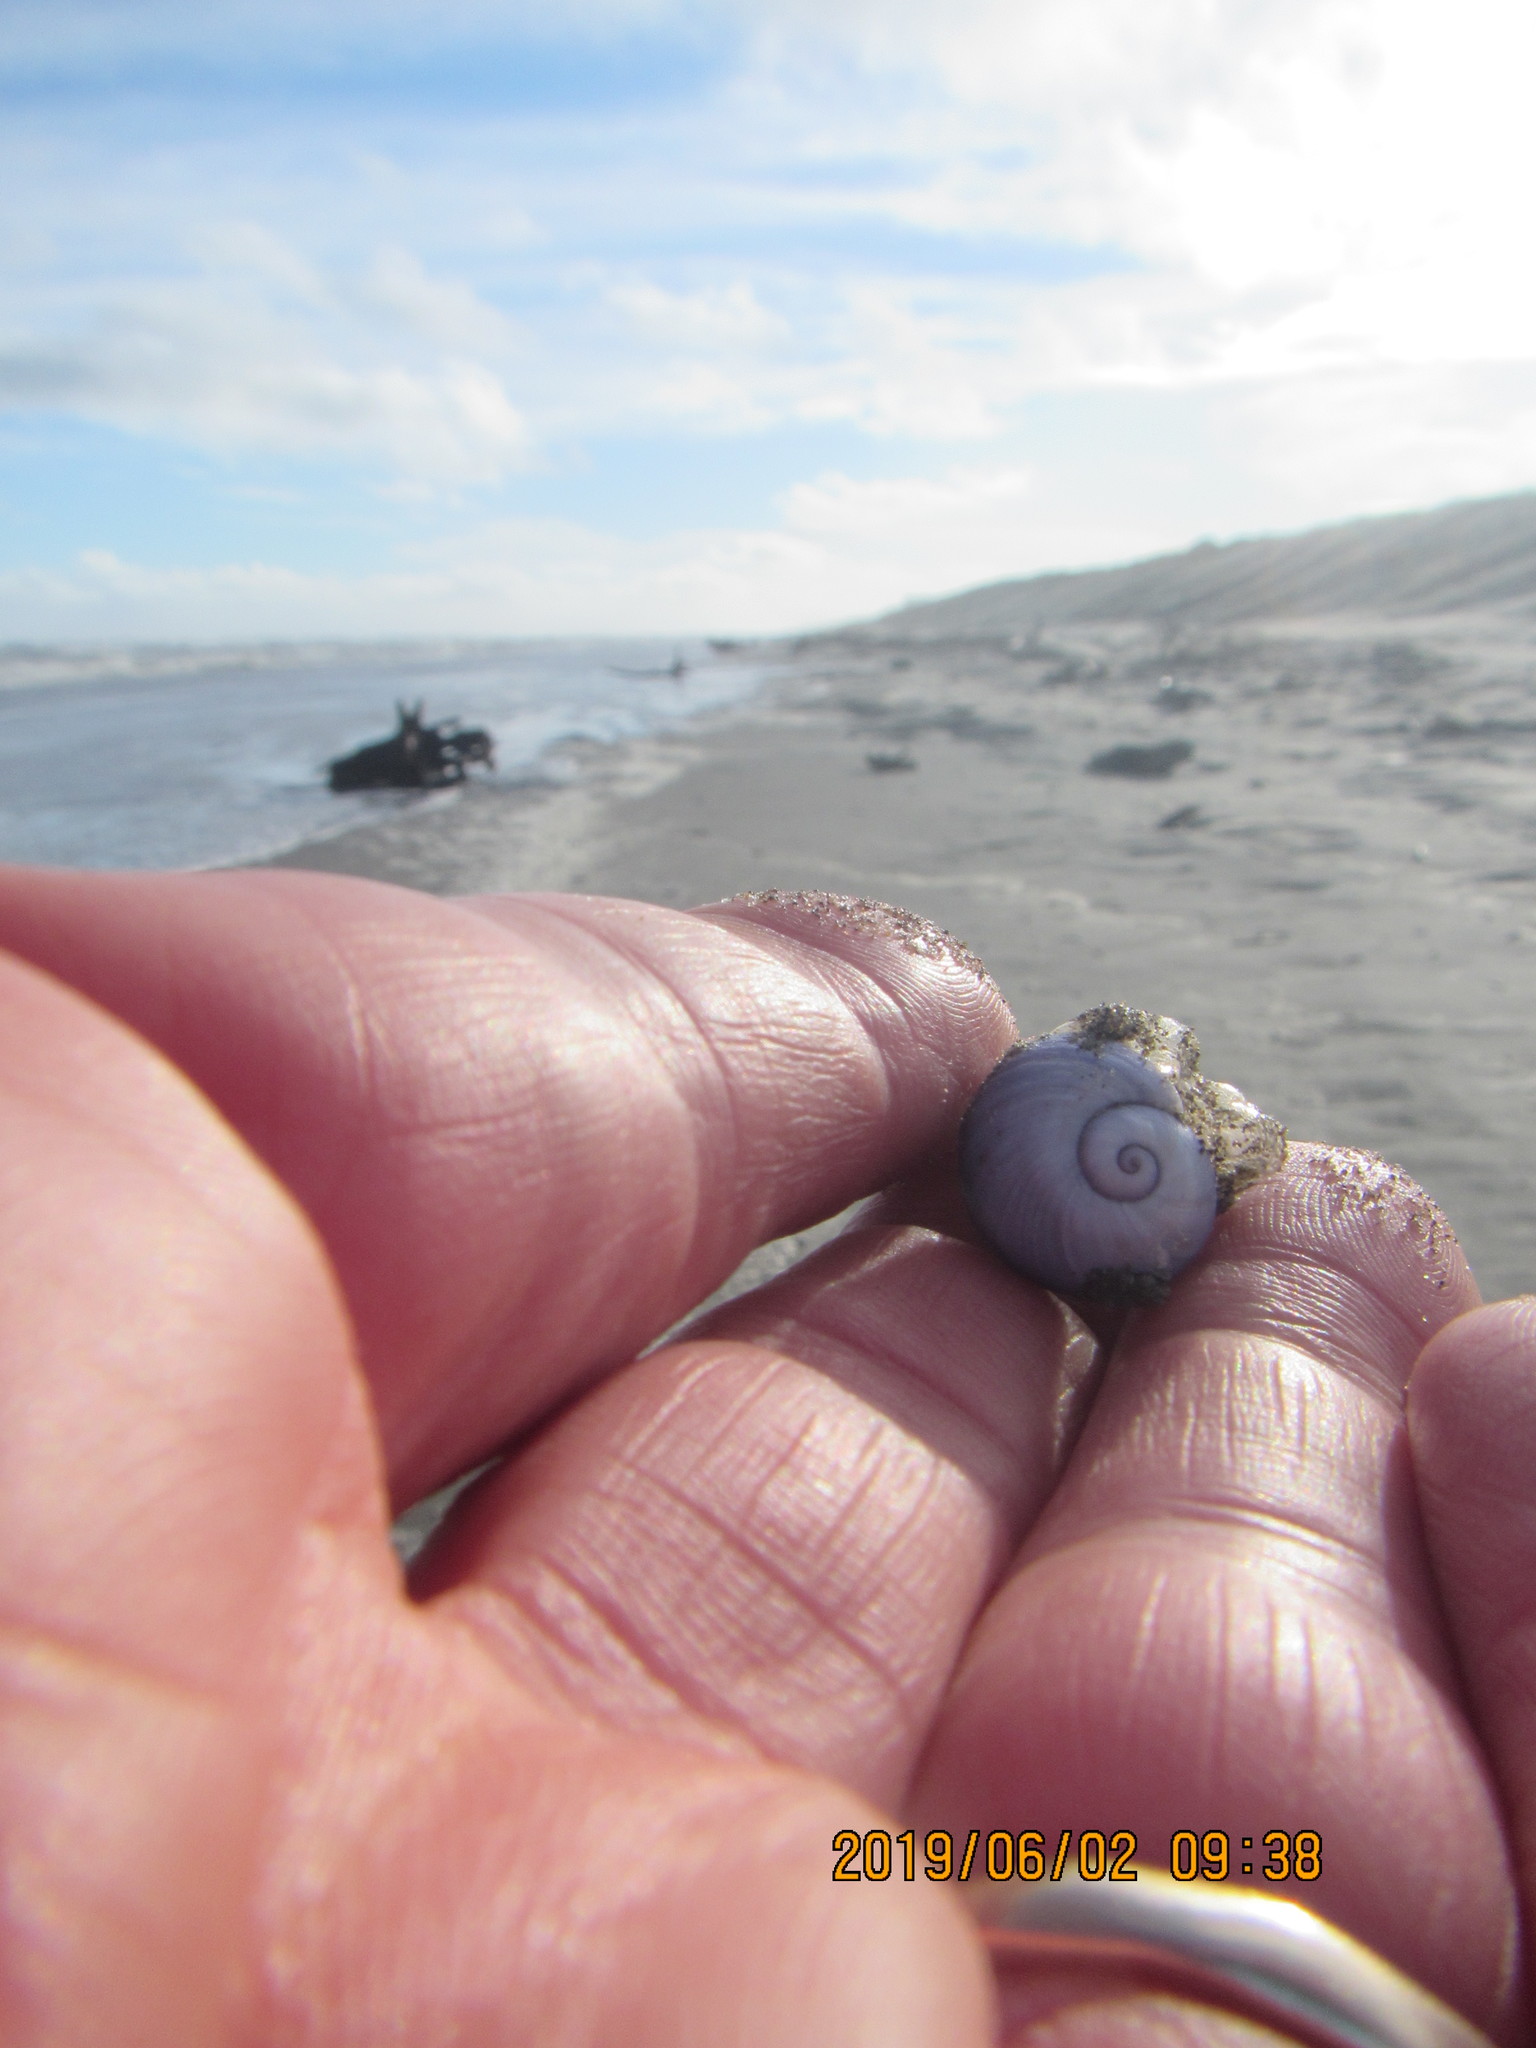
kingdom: Animalia
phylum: Mollusca
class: Gastropoda
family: Epitoniidae
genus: Janthina
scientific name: Janthina janthina
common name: Common janthina
